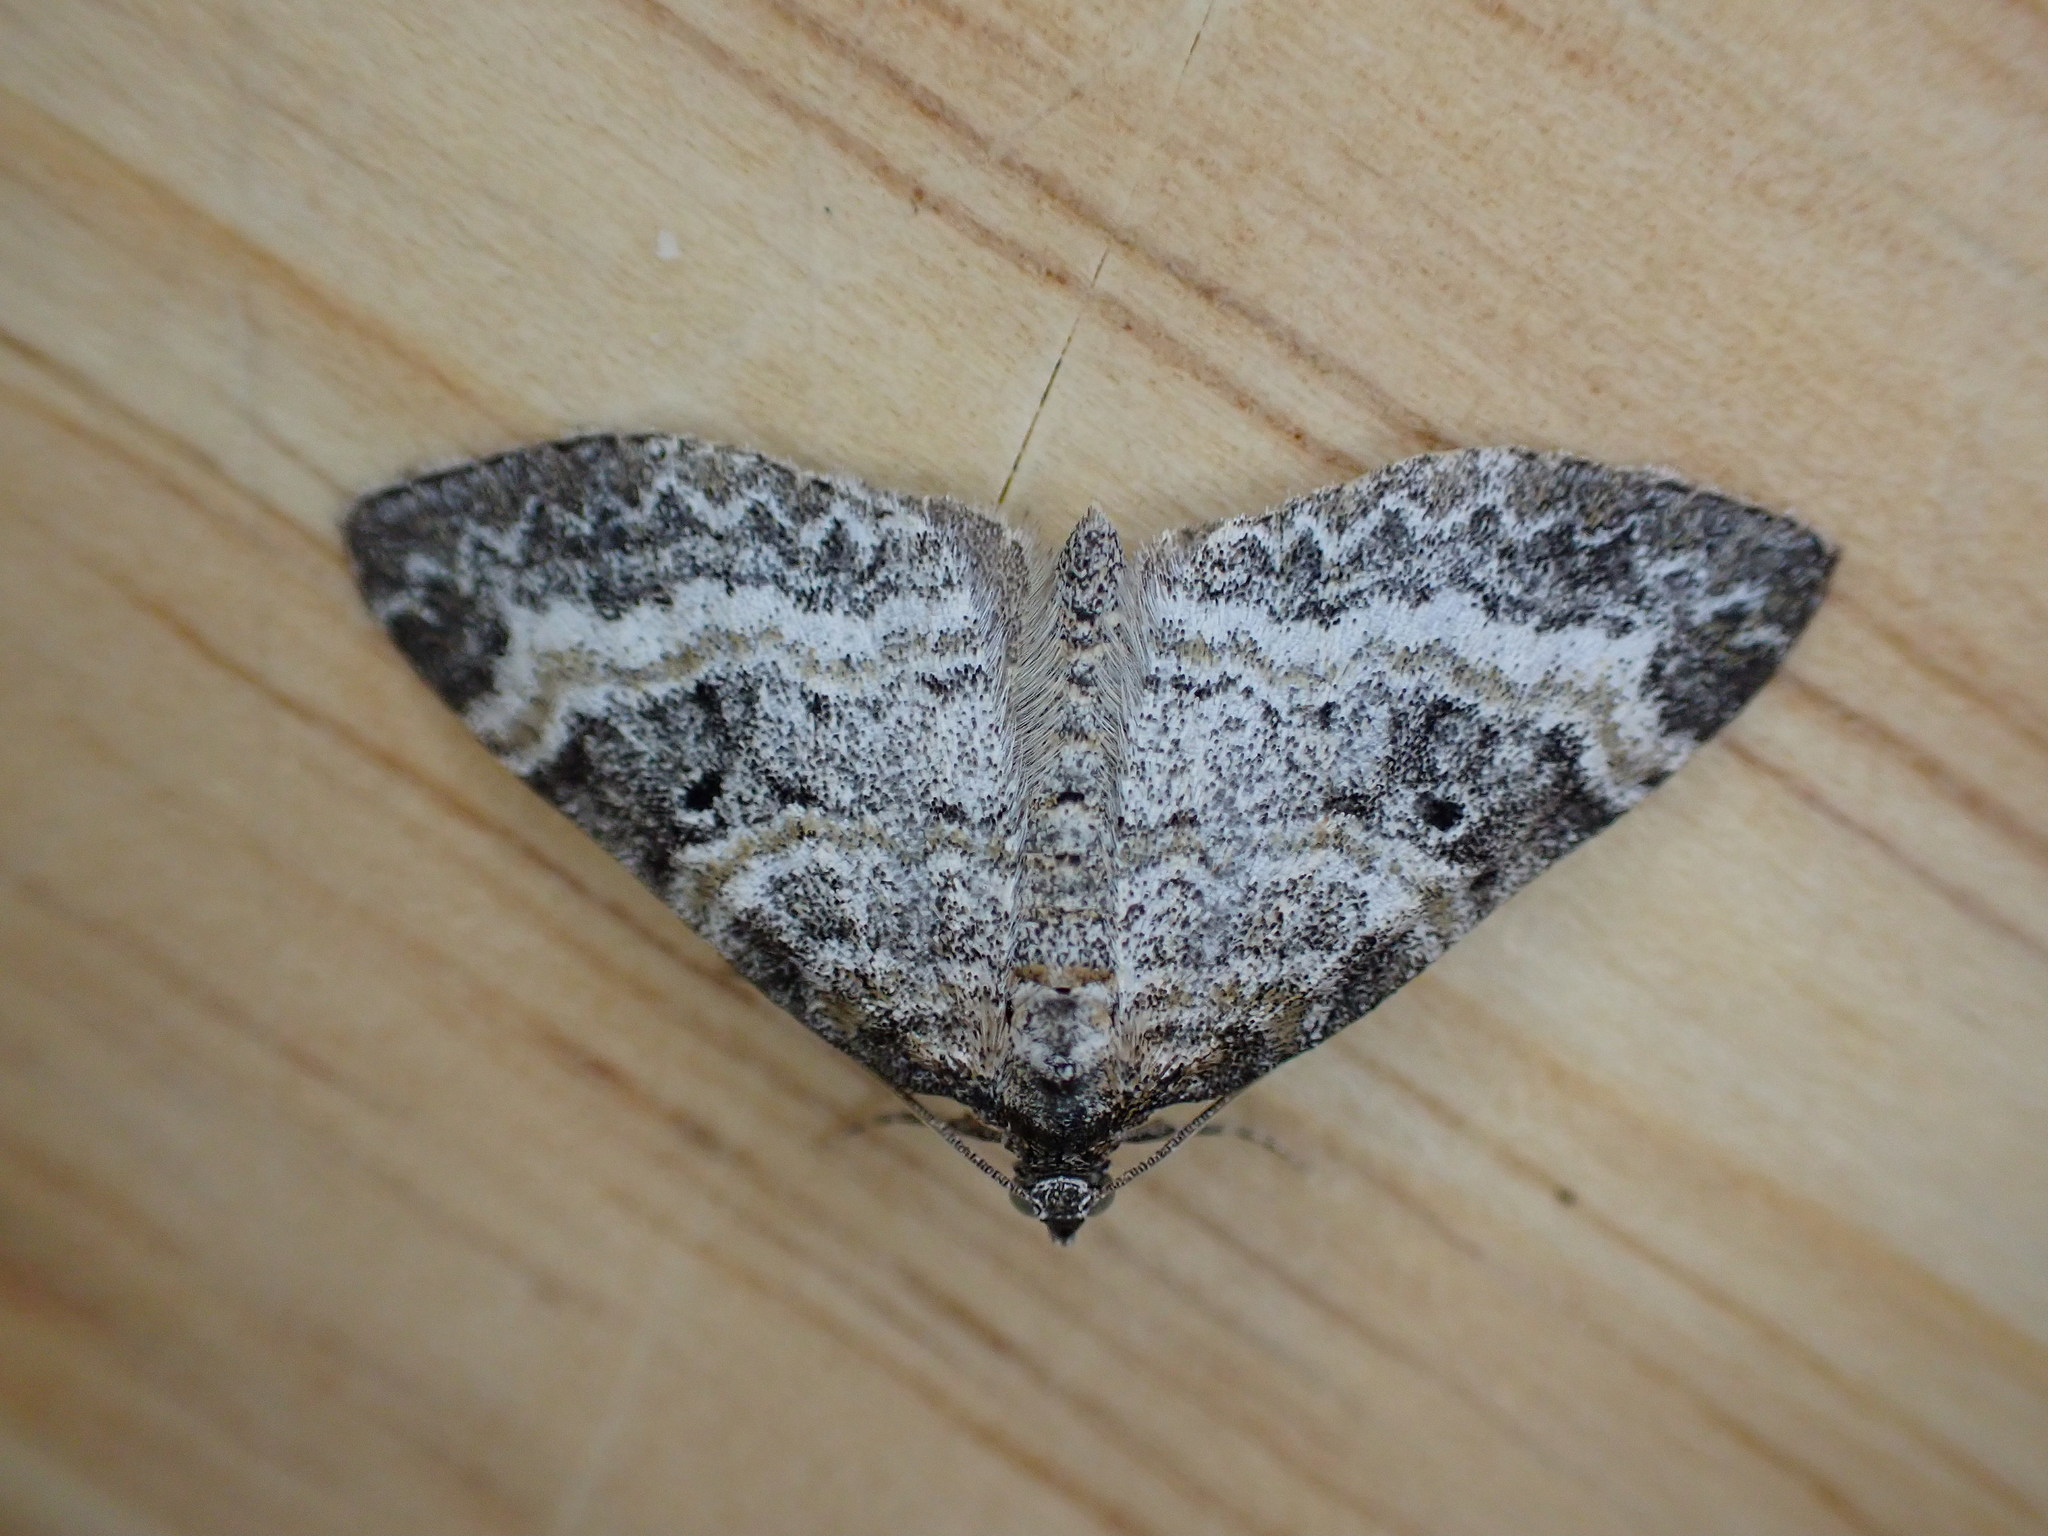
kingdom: Animalia
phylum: Arthropoda
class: Insecta
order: Lepidoptera
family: Geometridae
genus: Pterapherapteryx
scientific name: Pterapherapteryx sexalata
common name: Small seraphim
